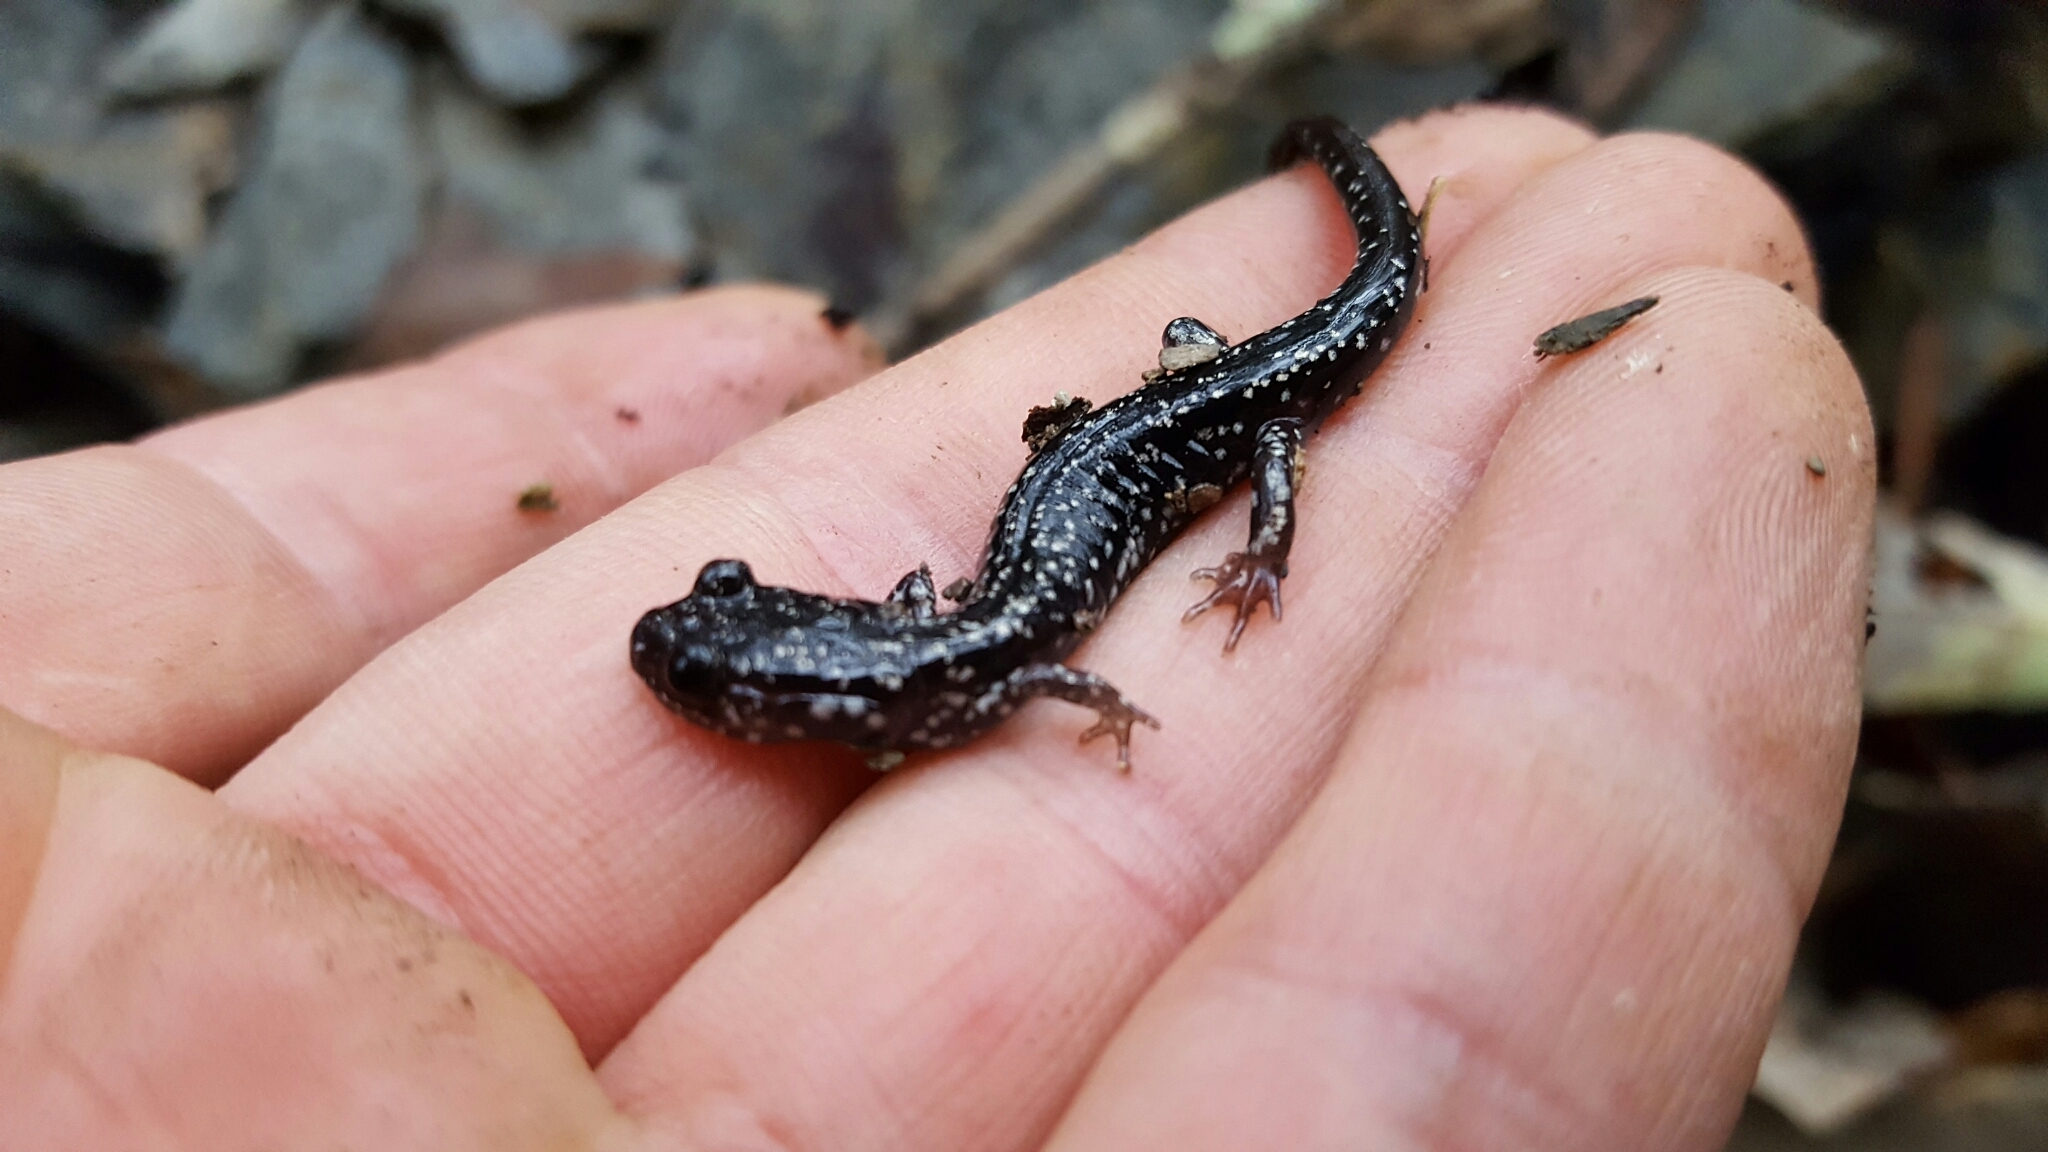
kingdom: Animalia
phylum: Chordata
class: Amphibia
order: Caudata
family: Plethodontidae
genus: Plethodon
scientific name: Plethodon albagula
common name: Western slimy salamander
